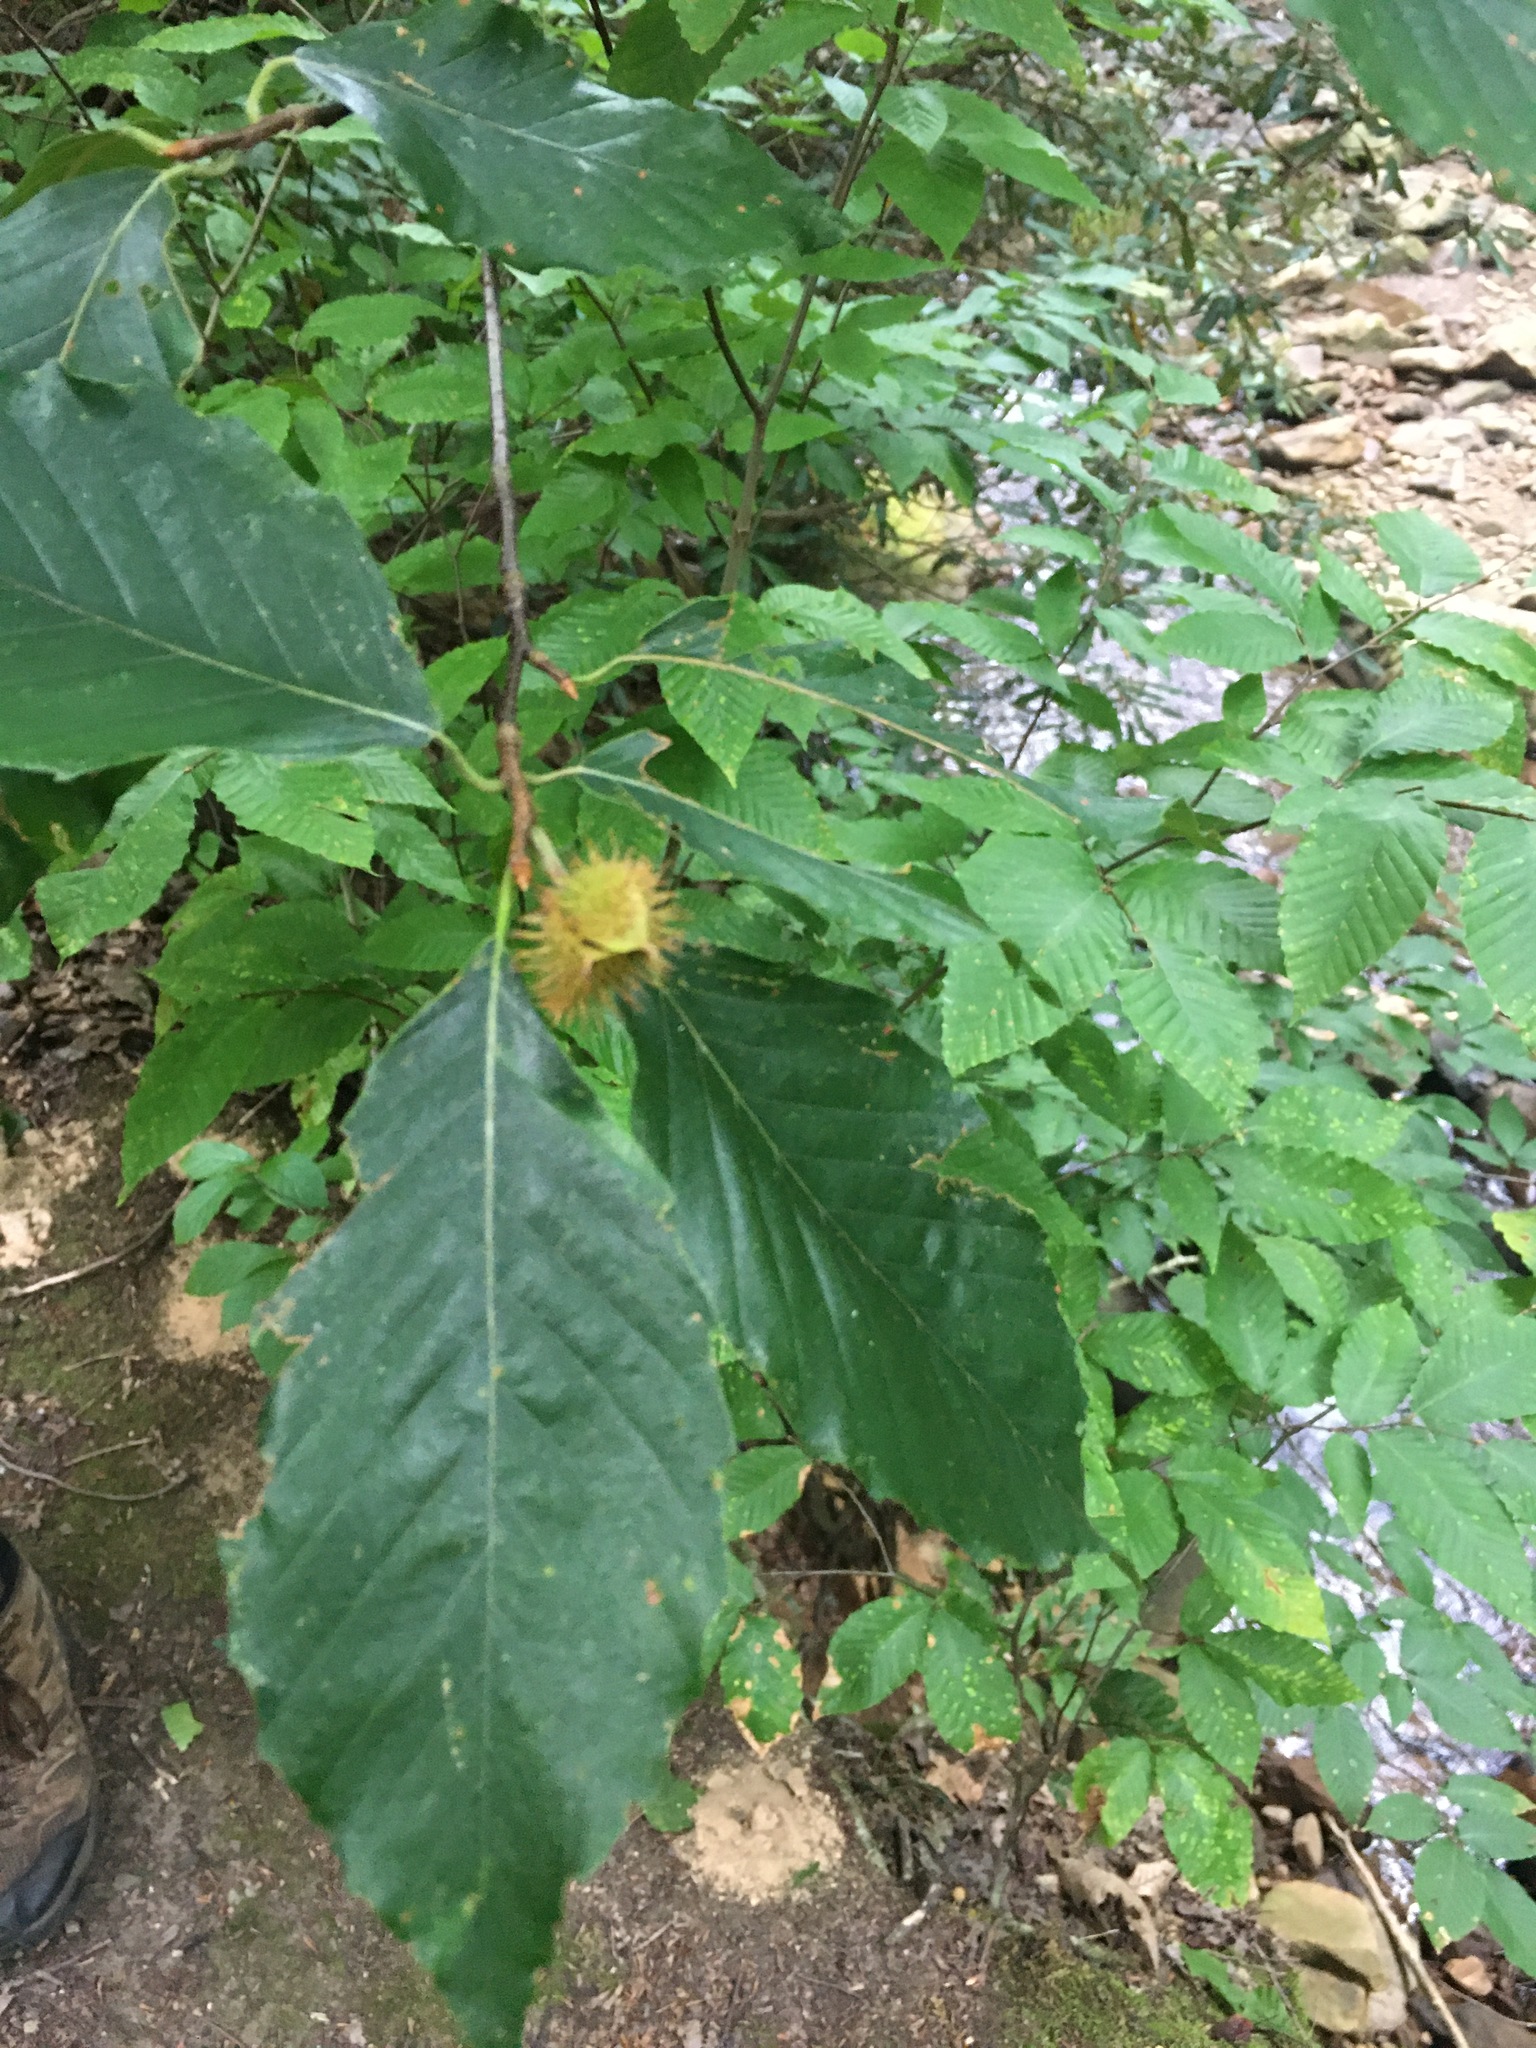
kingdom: Plantae
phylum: Tracheophyta
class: Magnoliopsida
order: Fagales
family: Fagaceae
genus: Fagus
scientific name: Fagus grandifolia
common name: American beech
